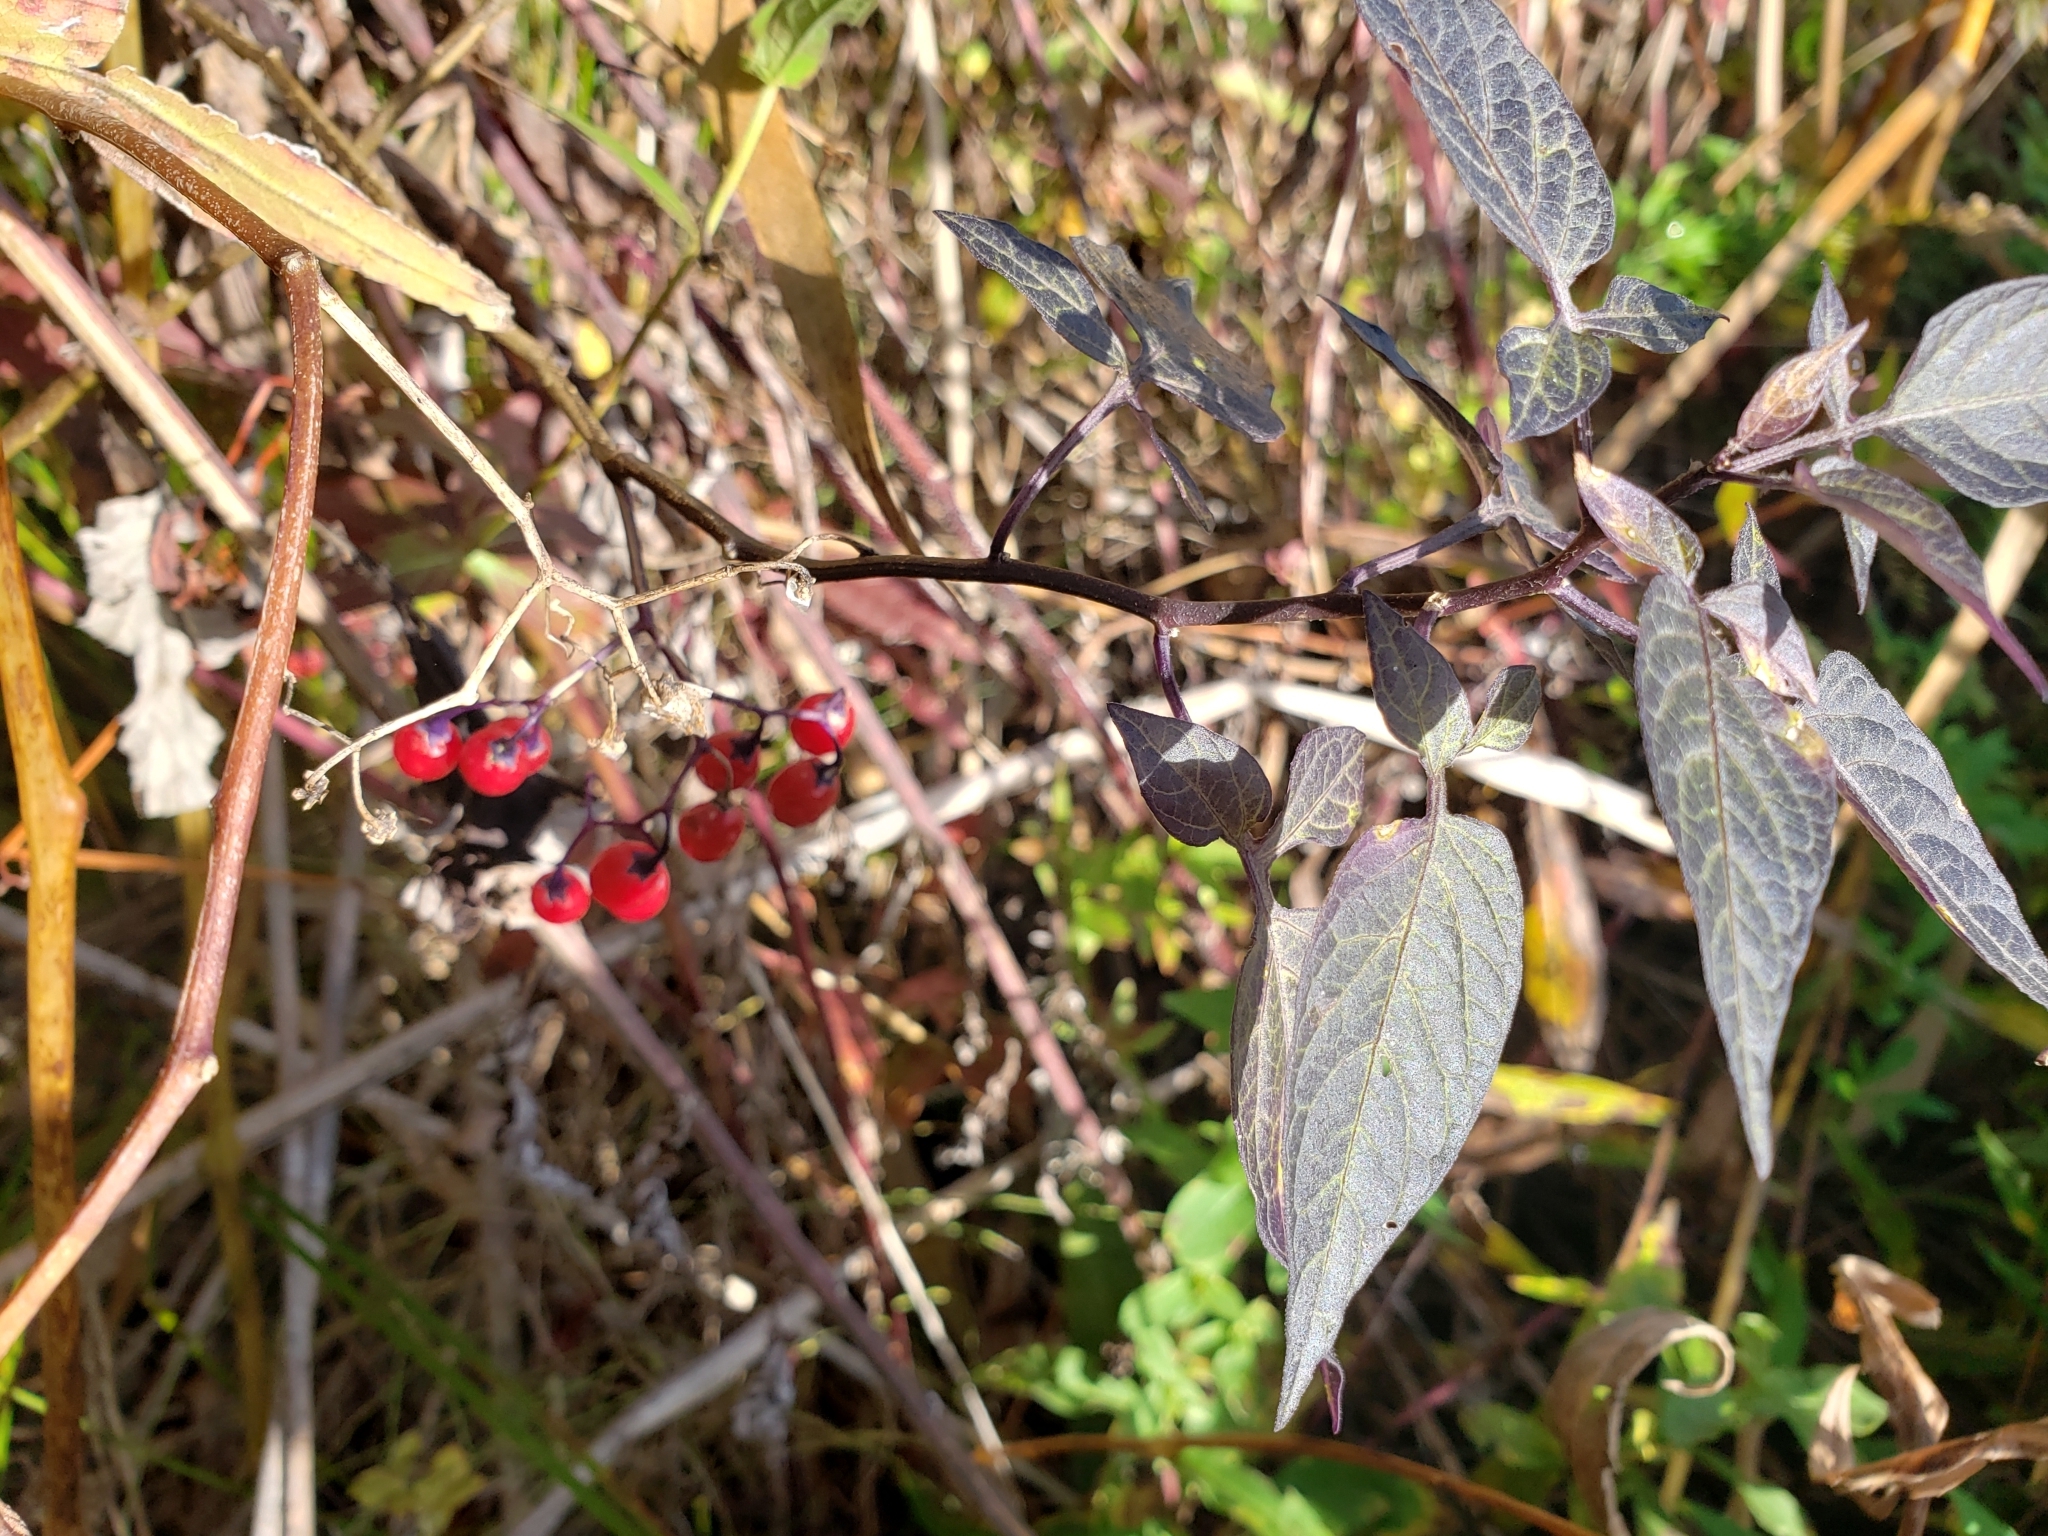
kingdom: Plantae
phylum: Tracheophyta
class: Magnoliopsida
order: Solanales
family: Solanaceae
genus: Solanum
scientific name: Solanum dulcamara
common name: Climbing nightshade
